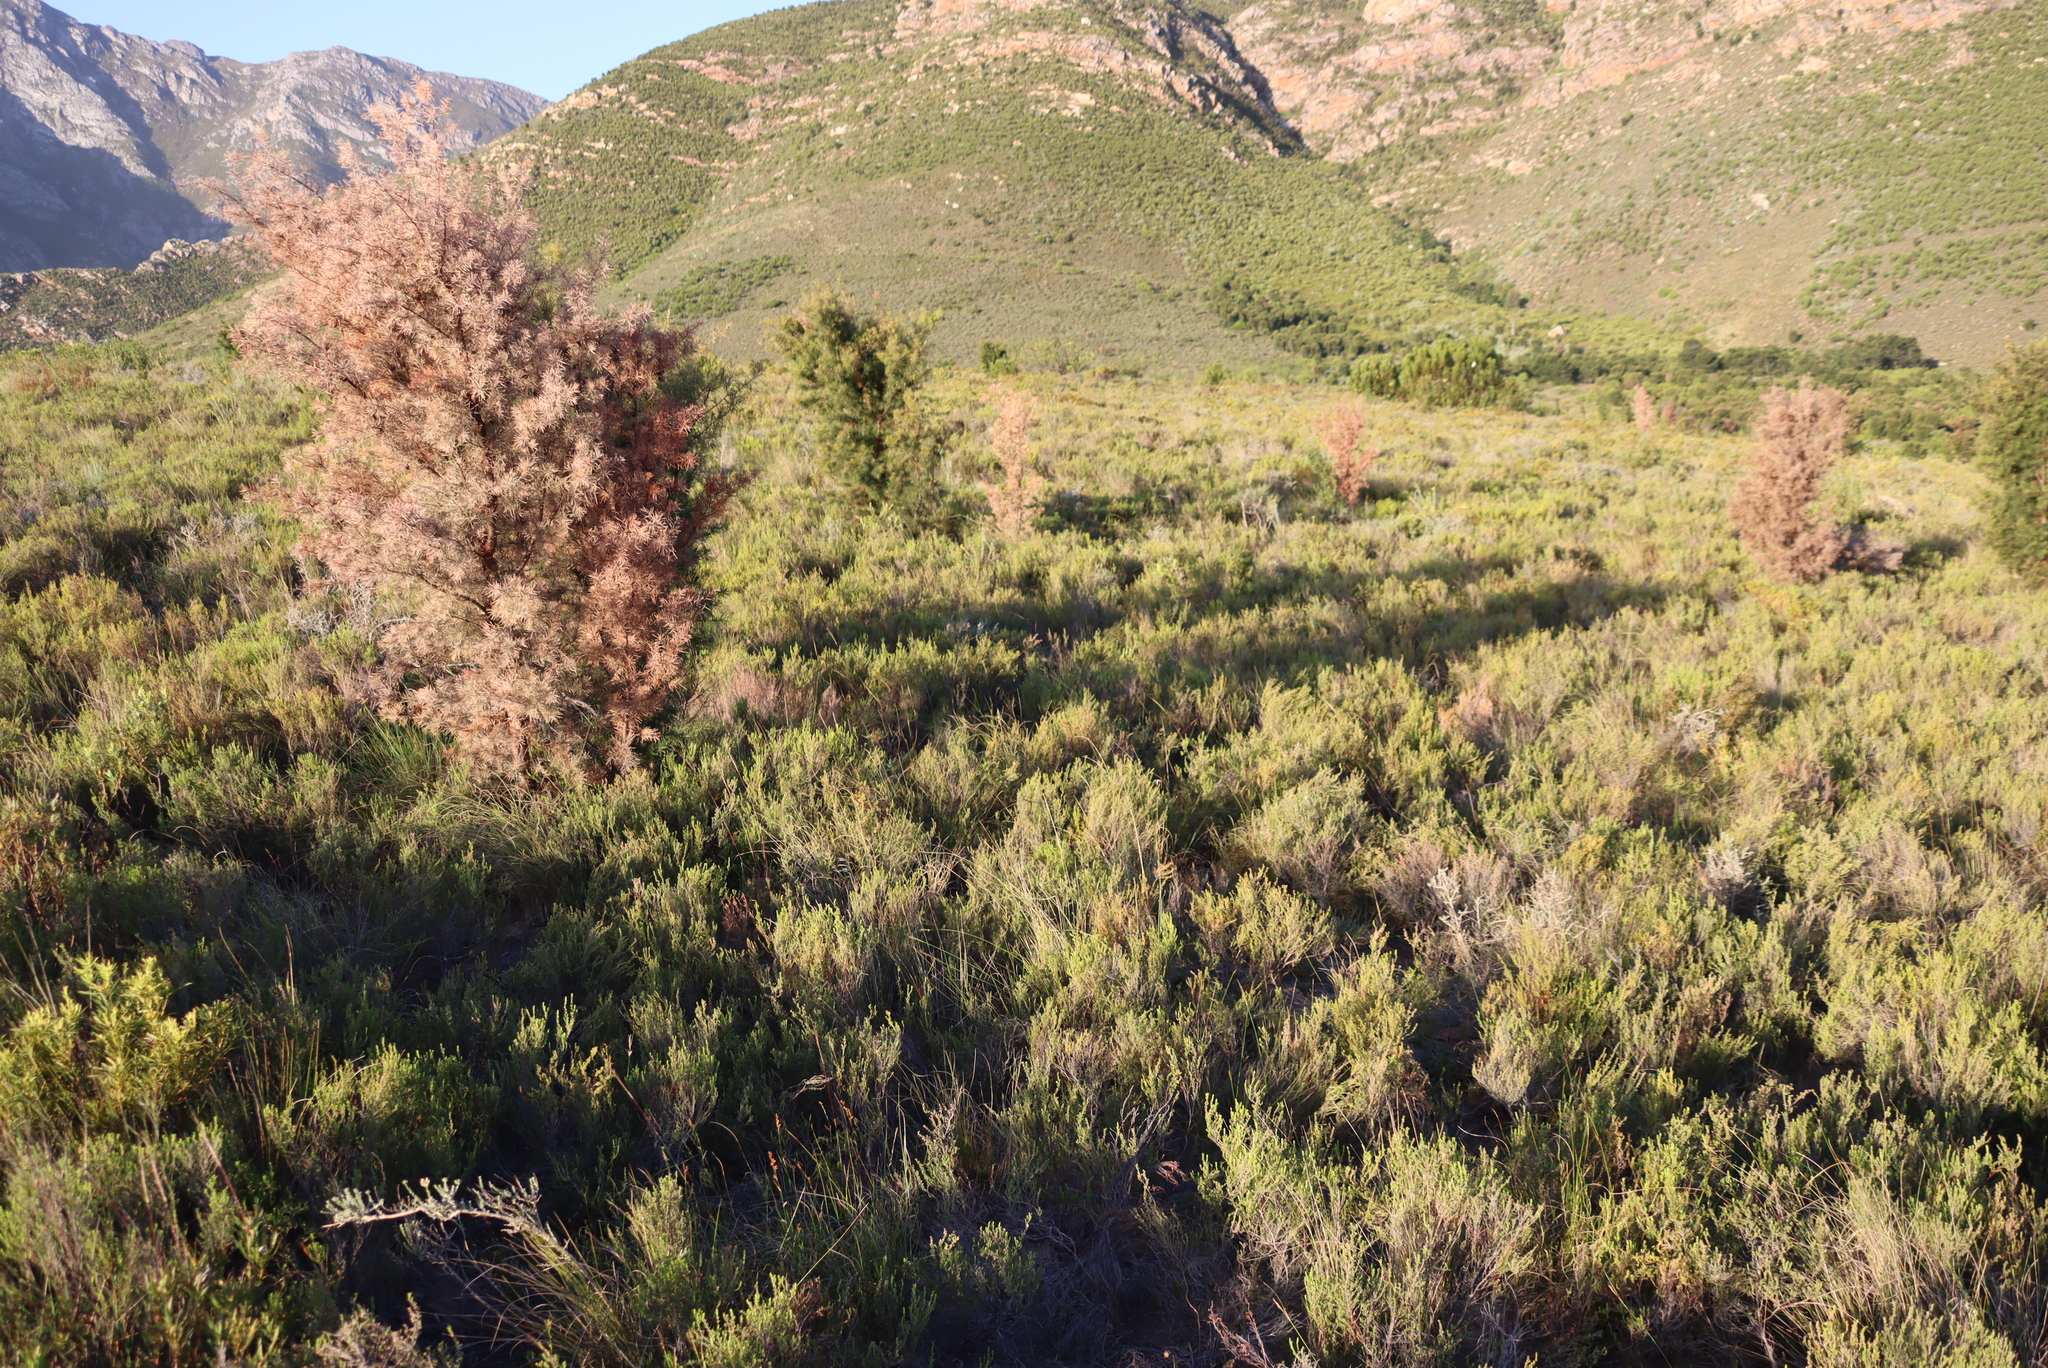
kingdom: Plantae
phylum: Tracheophyta
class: Magnoliopsida
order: Proteales
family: Proteaceae
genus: Hakea
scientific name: Hakea sericea
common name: Needle bush
